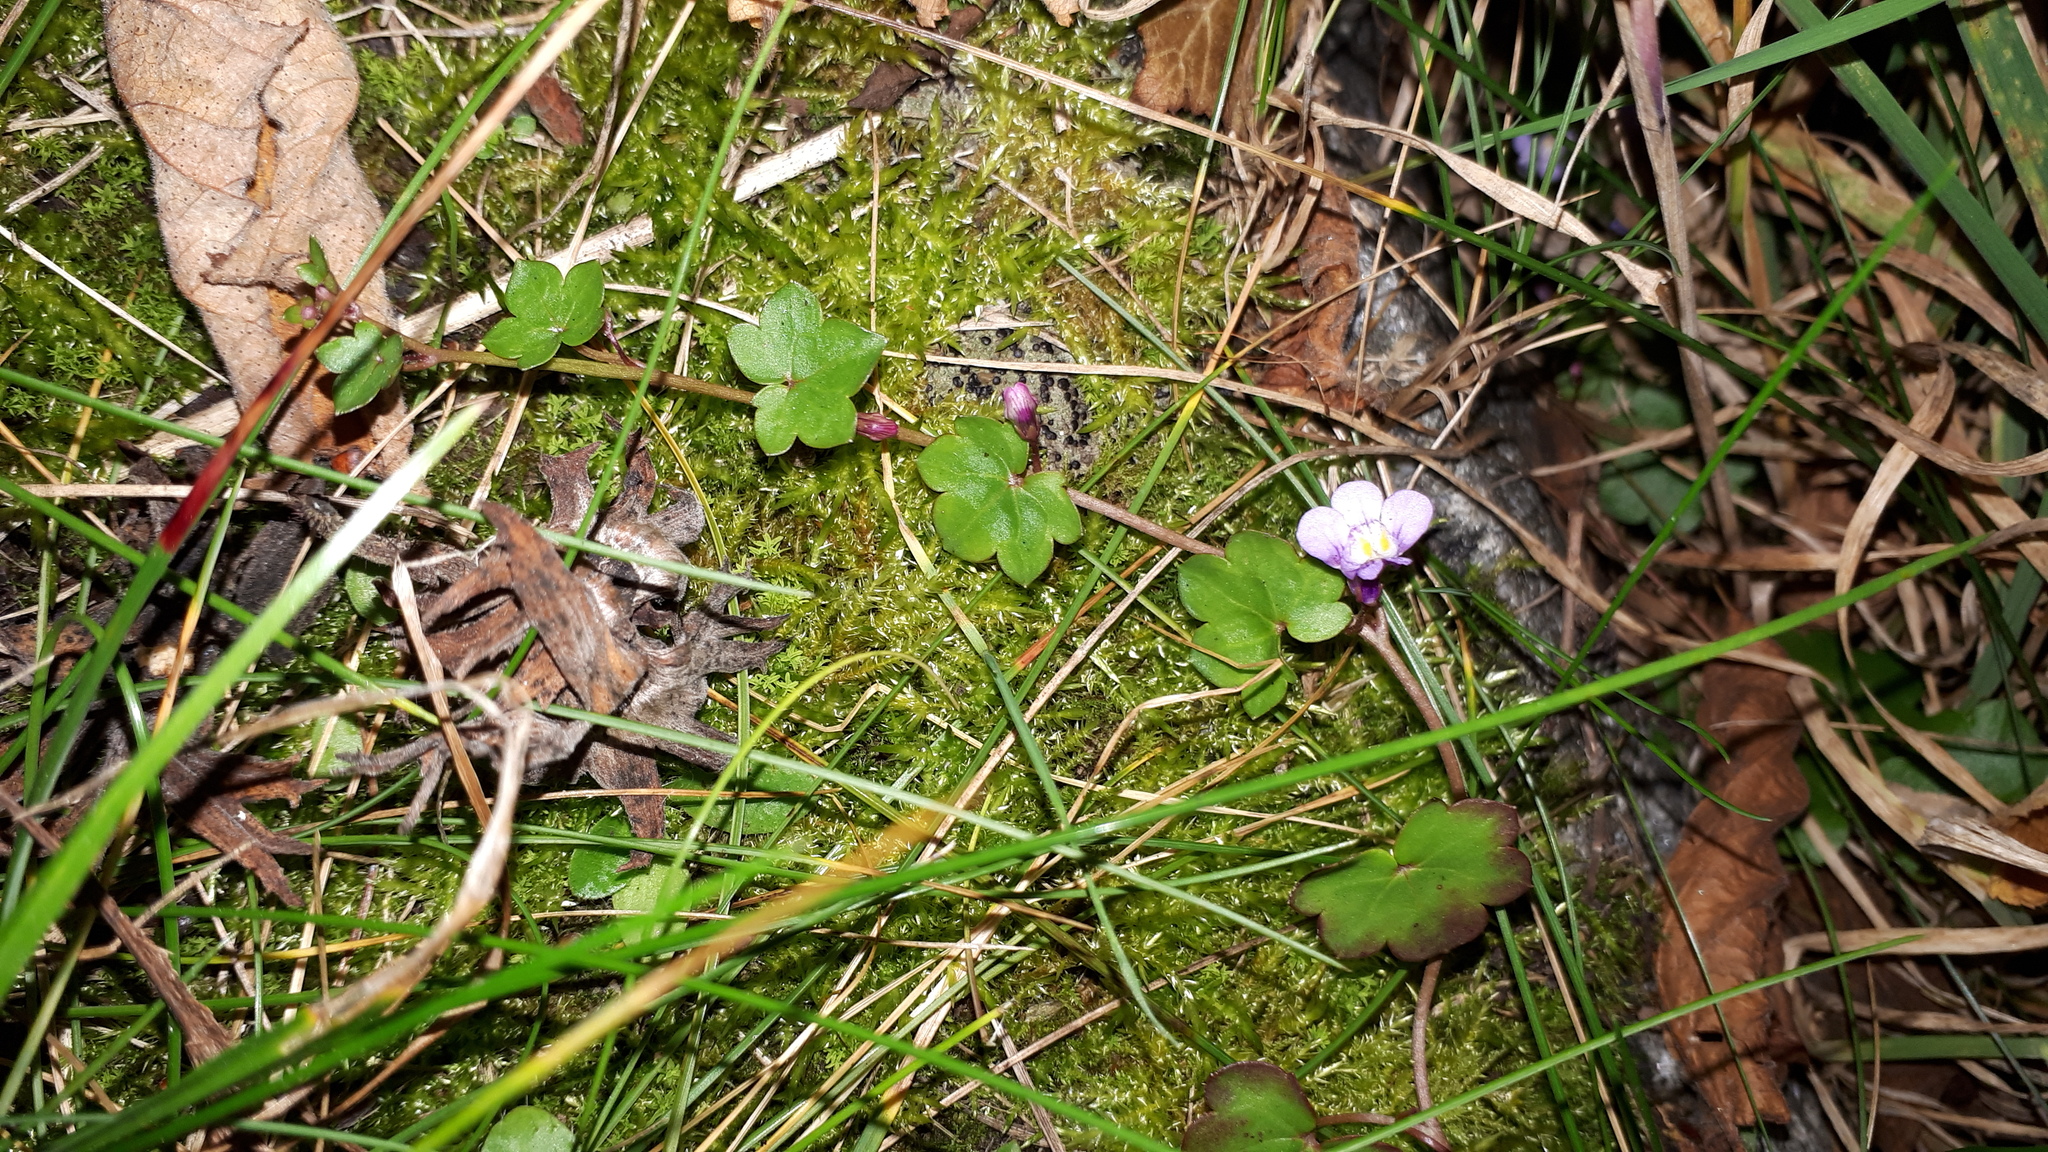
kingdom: Plantae
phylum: Tracheophyta
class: Magnoliopsida
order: Lamiales
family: Plantaginaceae
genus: Cymbalaria
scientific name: Cymbalaria muralis
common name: Ivy-leaved toadflax
